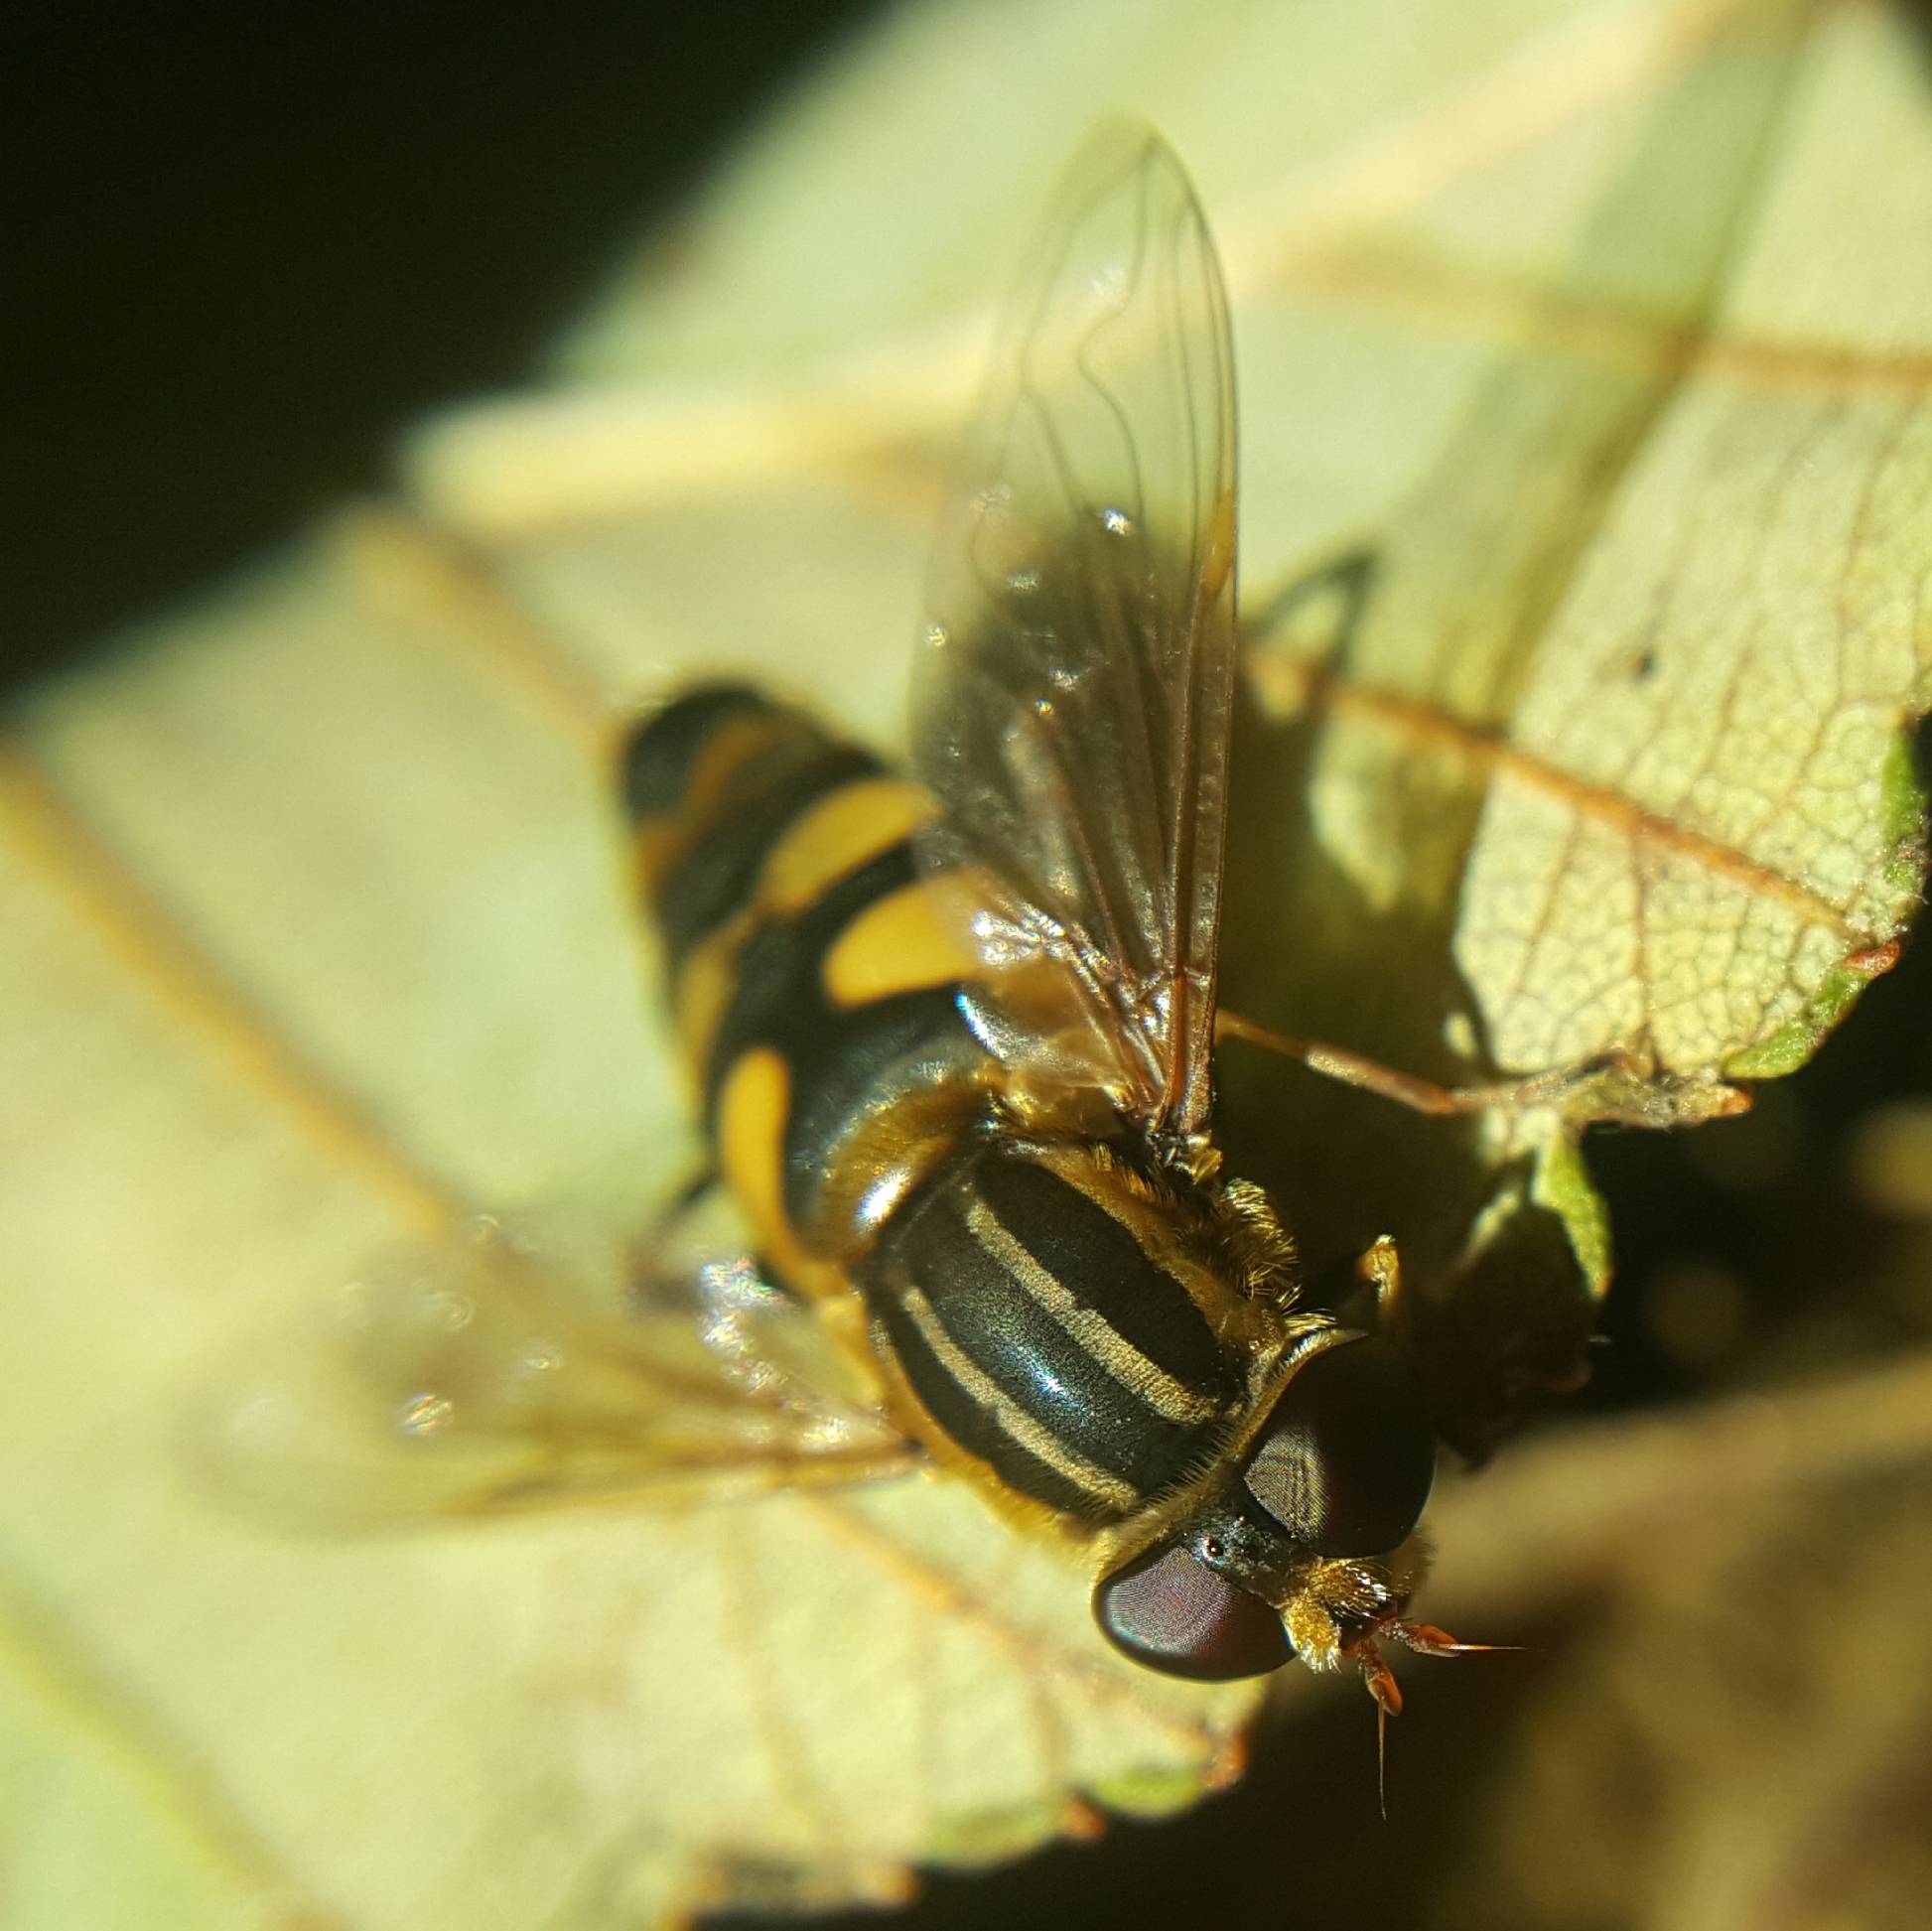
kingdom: Animalia
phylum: Arthropoda
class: Insecta
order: Diptera
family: Syrphidae
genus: Helophilus
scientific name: Helophilus fasciatus
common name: Narrow-headed marsh fly
